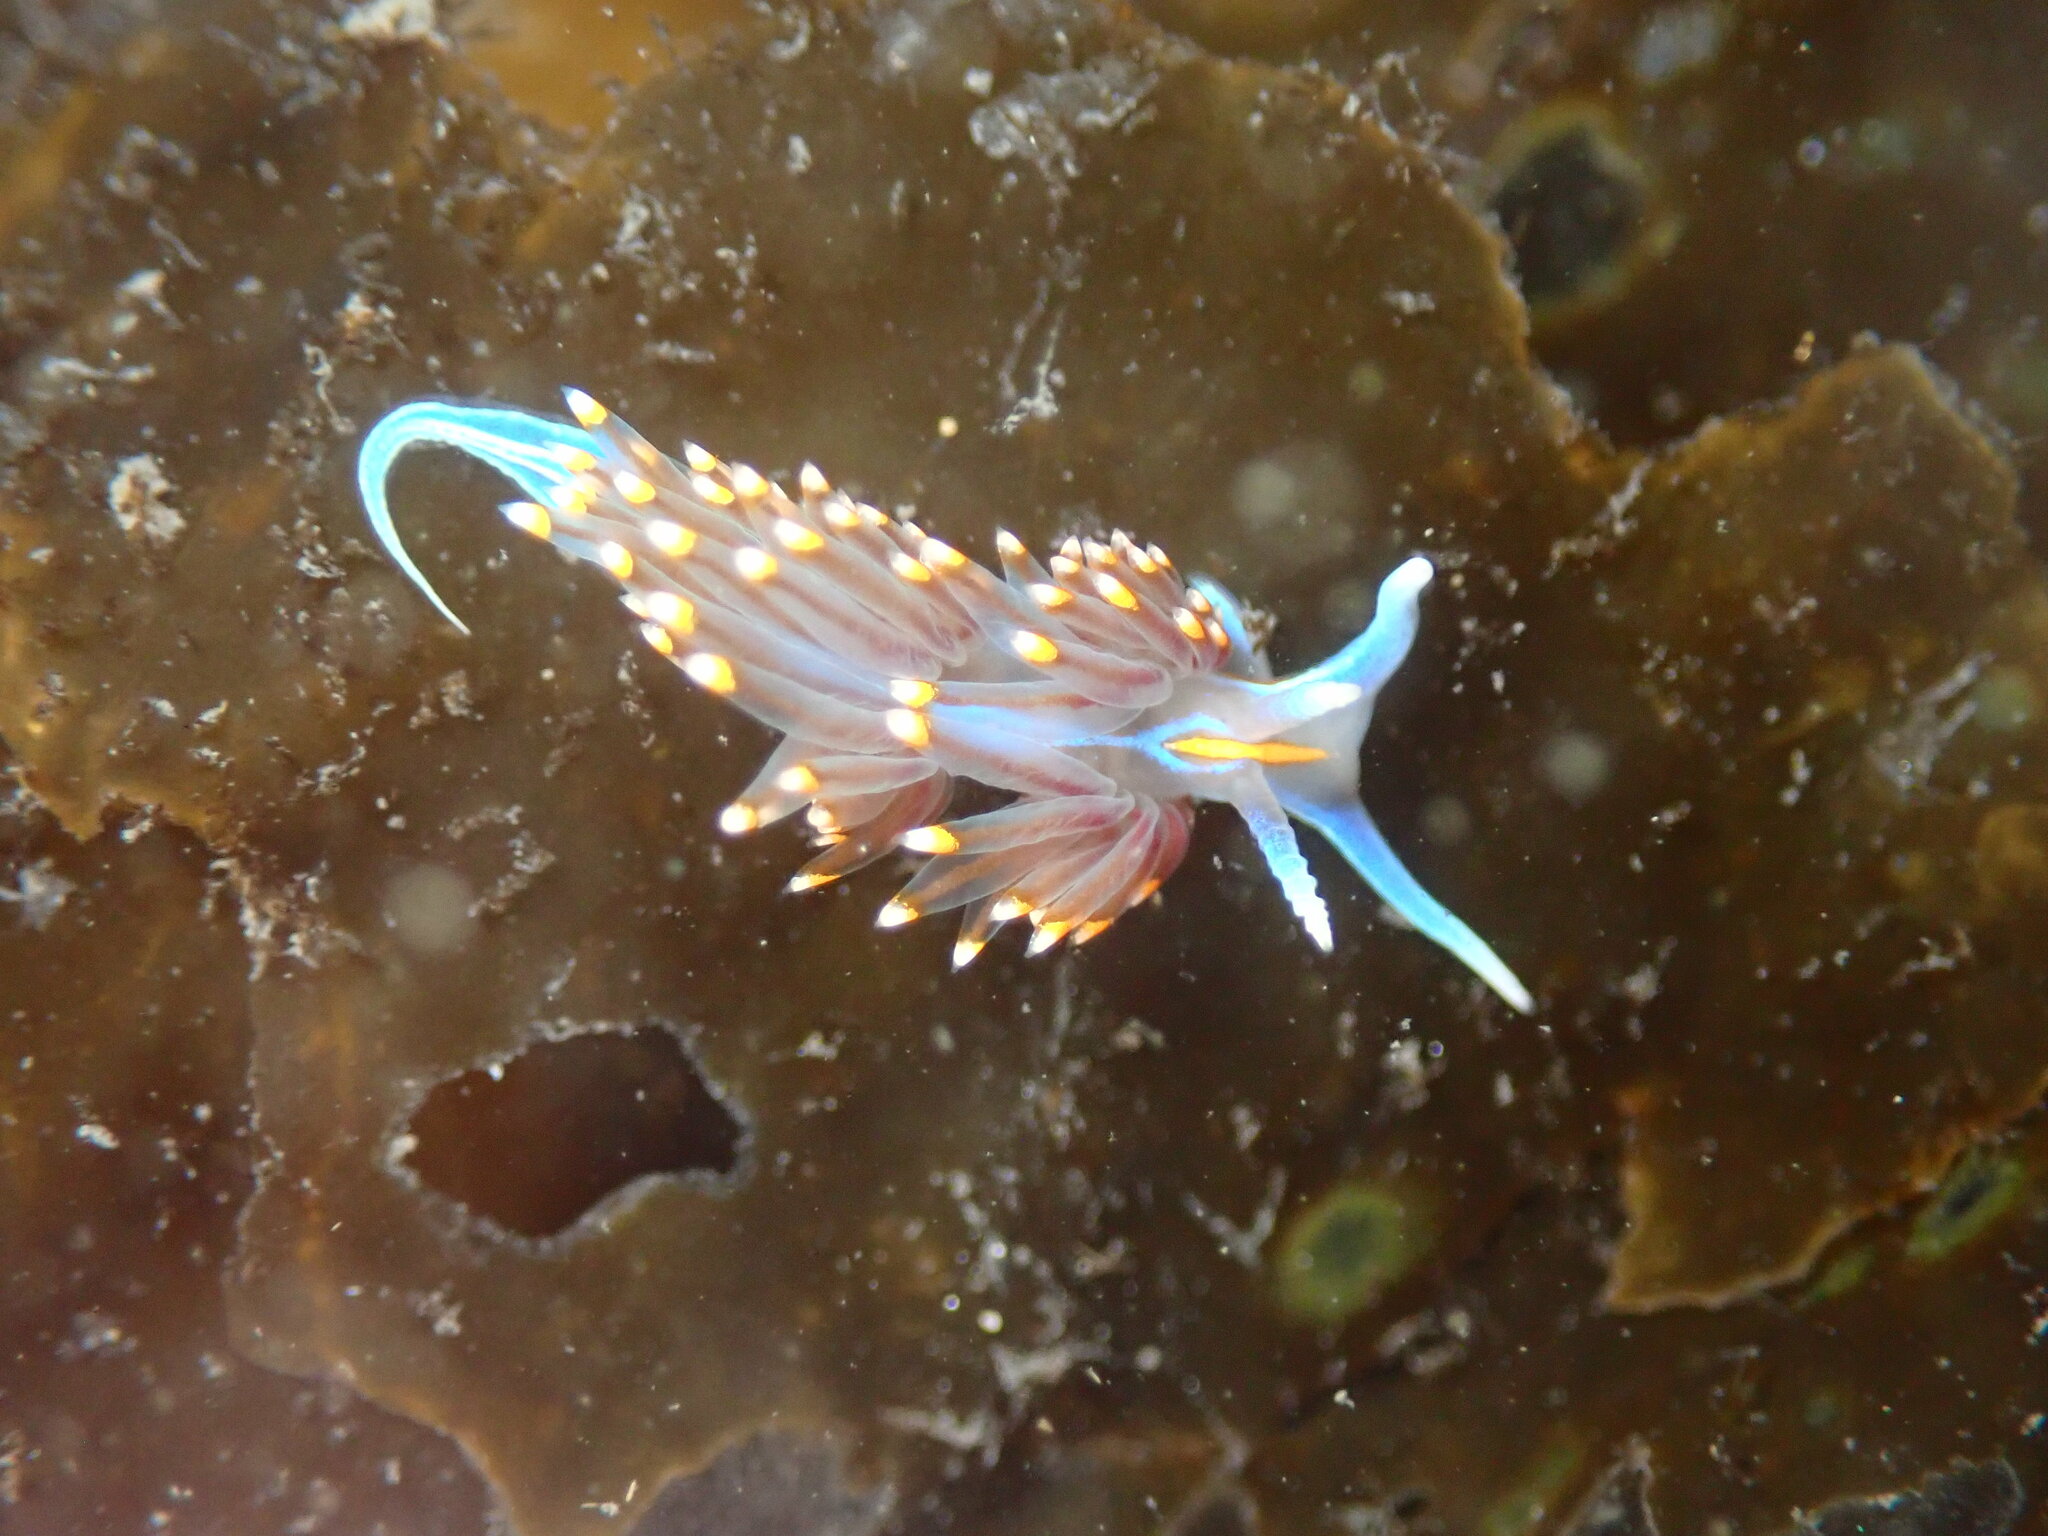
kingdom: Animalia
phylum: Mollusca
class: Gastropoda
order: Nudibranchia
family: Myrrhinidae
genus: Hermissenda
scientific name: Hermissenda opalescens
